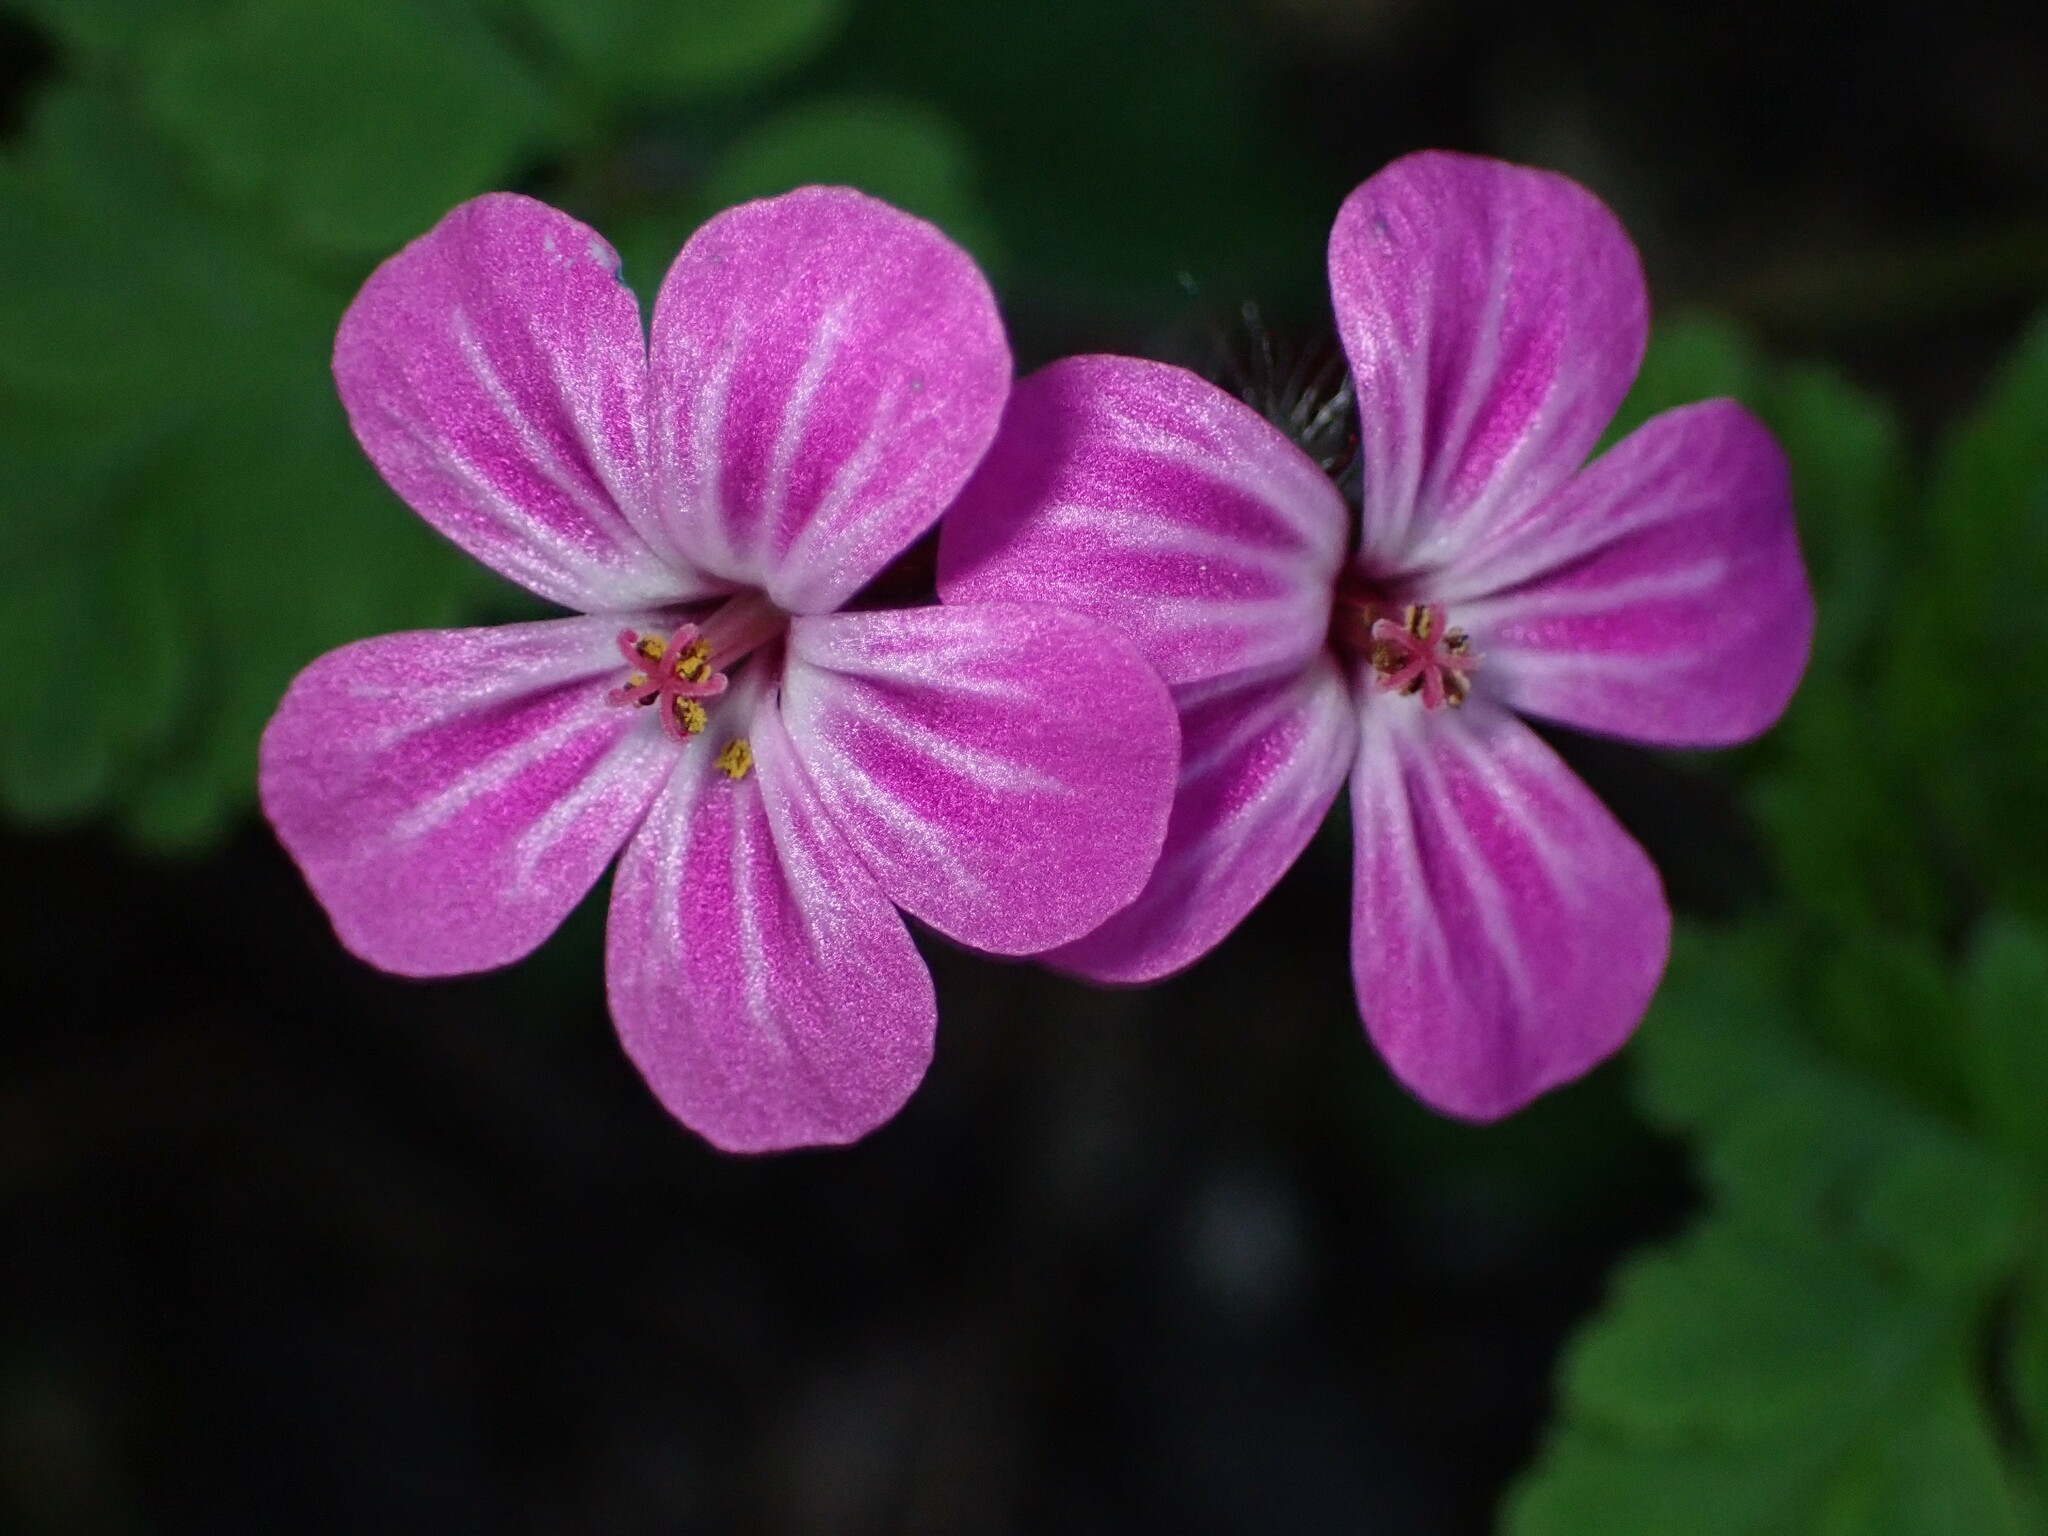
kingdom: Plantae
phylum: Tracheophyta
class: Magnoliopsida
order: Geraniales
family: Geraniaceae
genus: Geranium
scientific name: Geranium robertianum
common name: Herb-robert
